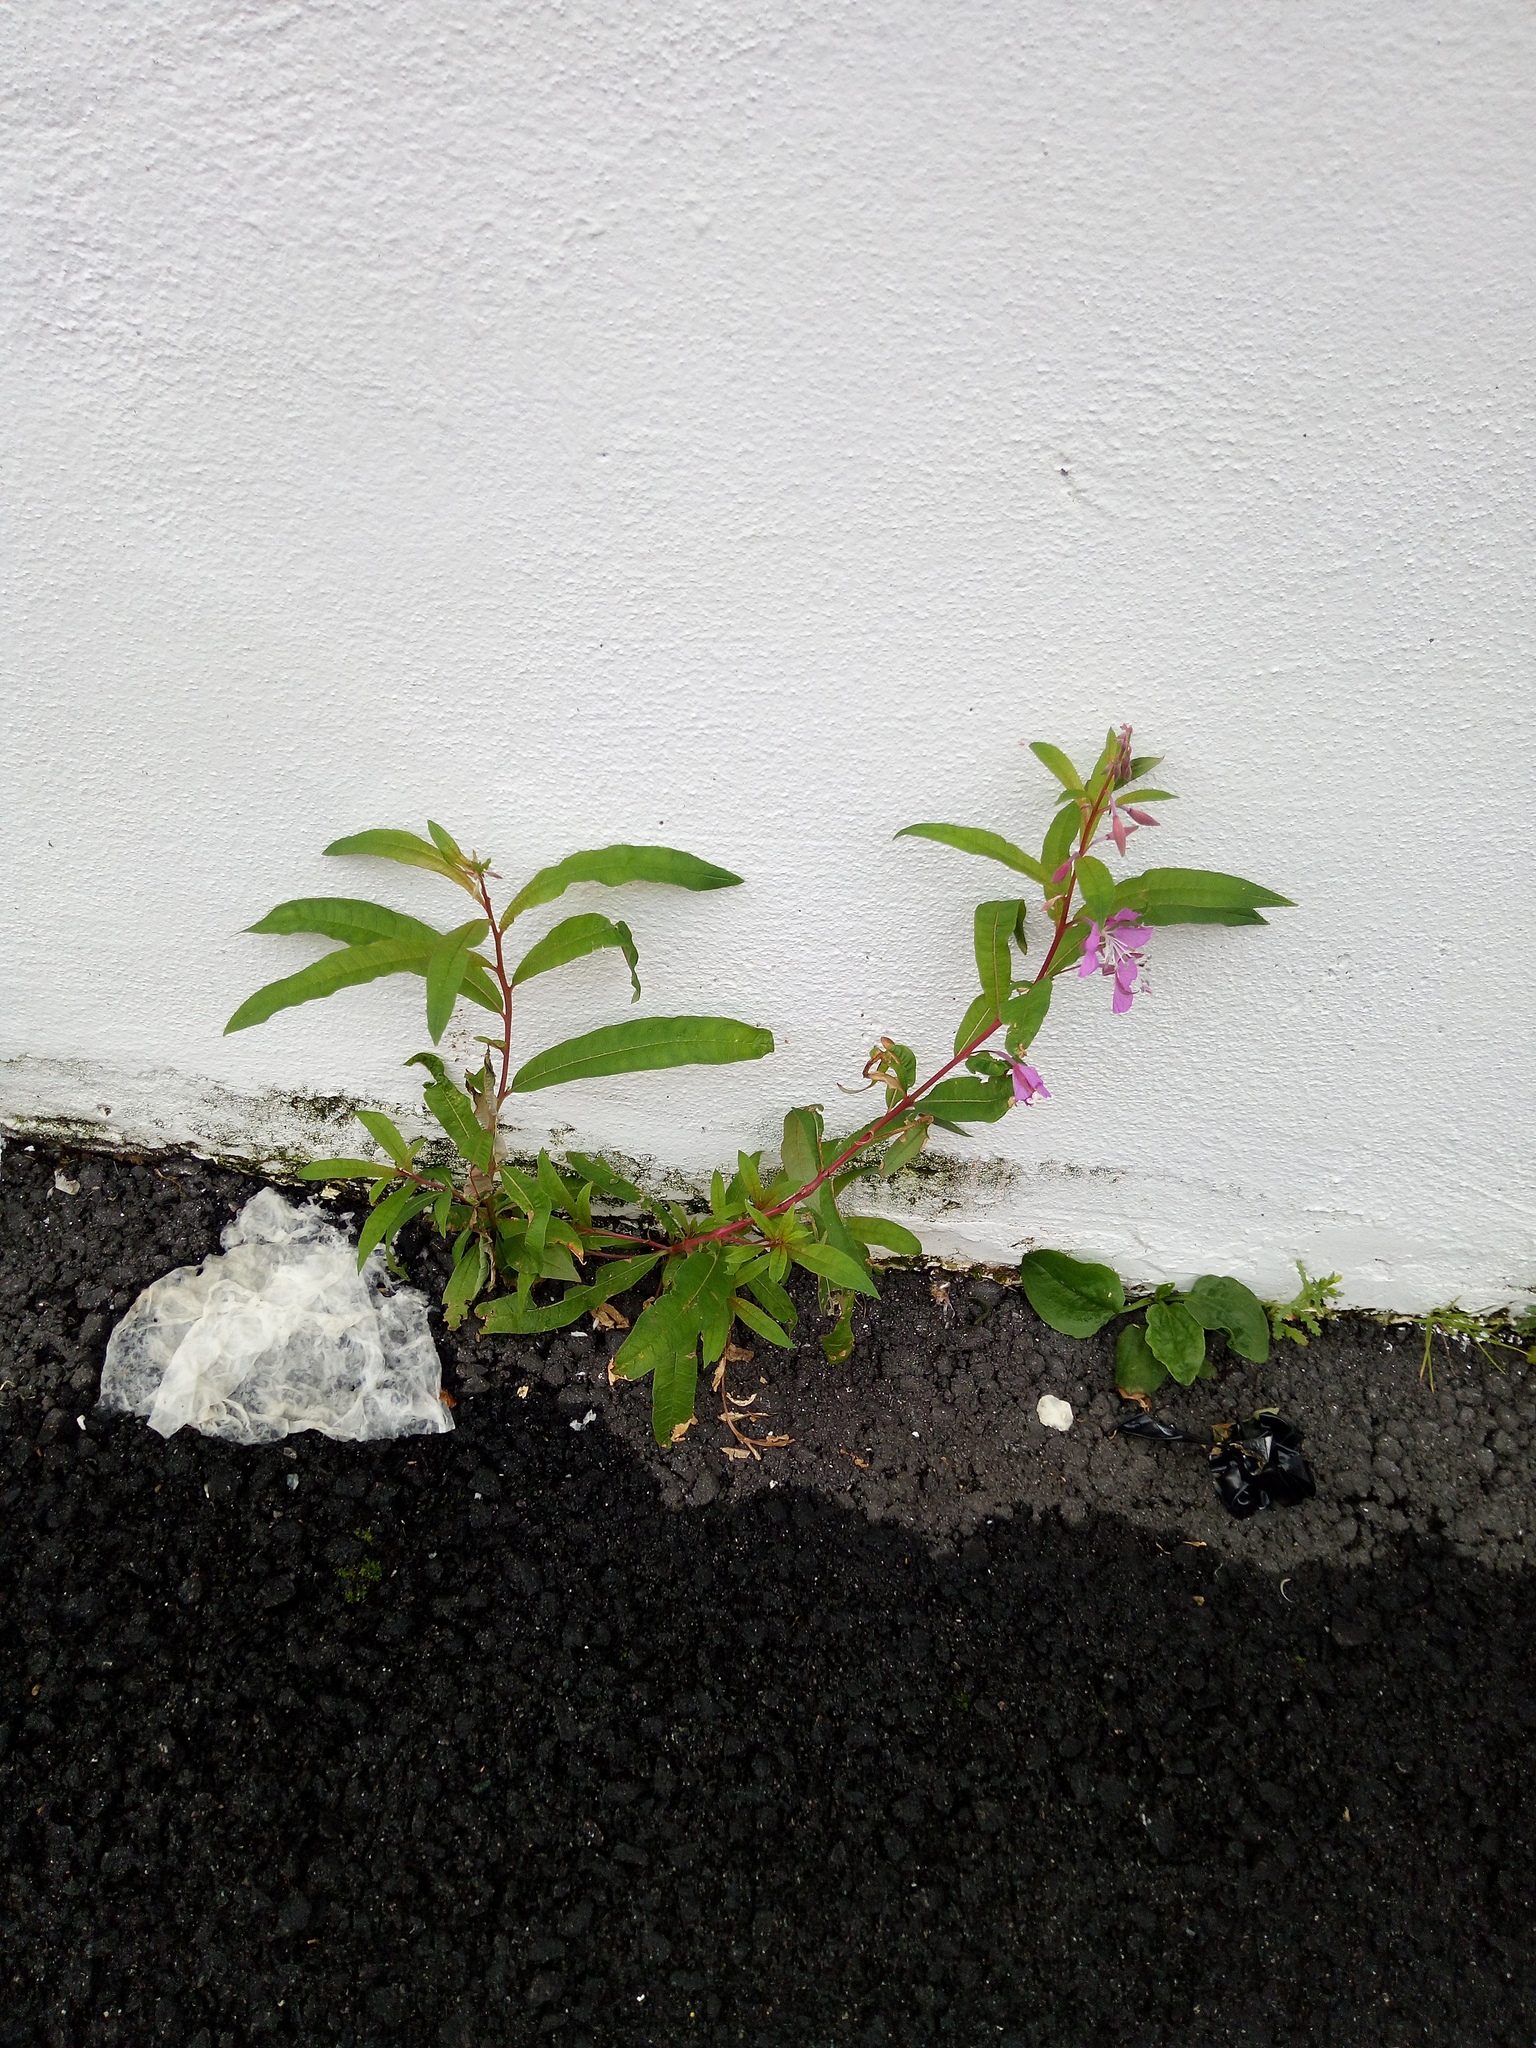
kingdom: Plantae
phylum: Tracheophyta
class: Magnoliopsida
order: Myrtales
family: Onagraceae
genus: Chamaenerion
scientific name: Chamaenerion angustifolium
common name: Fireweed
